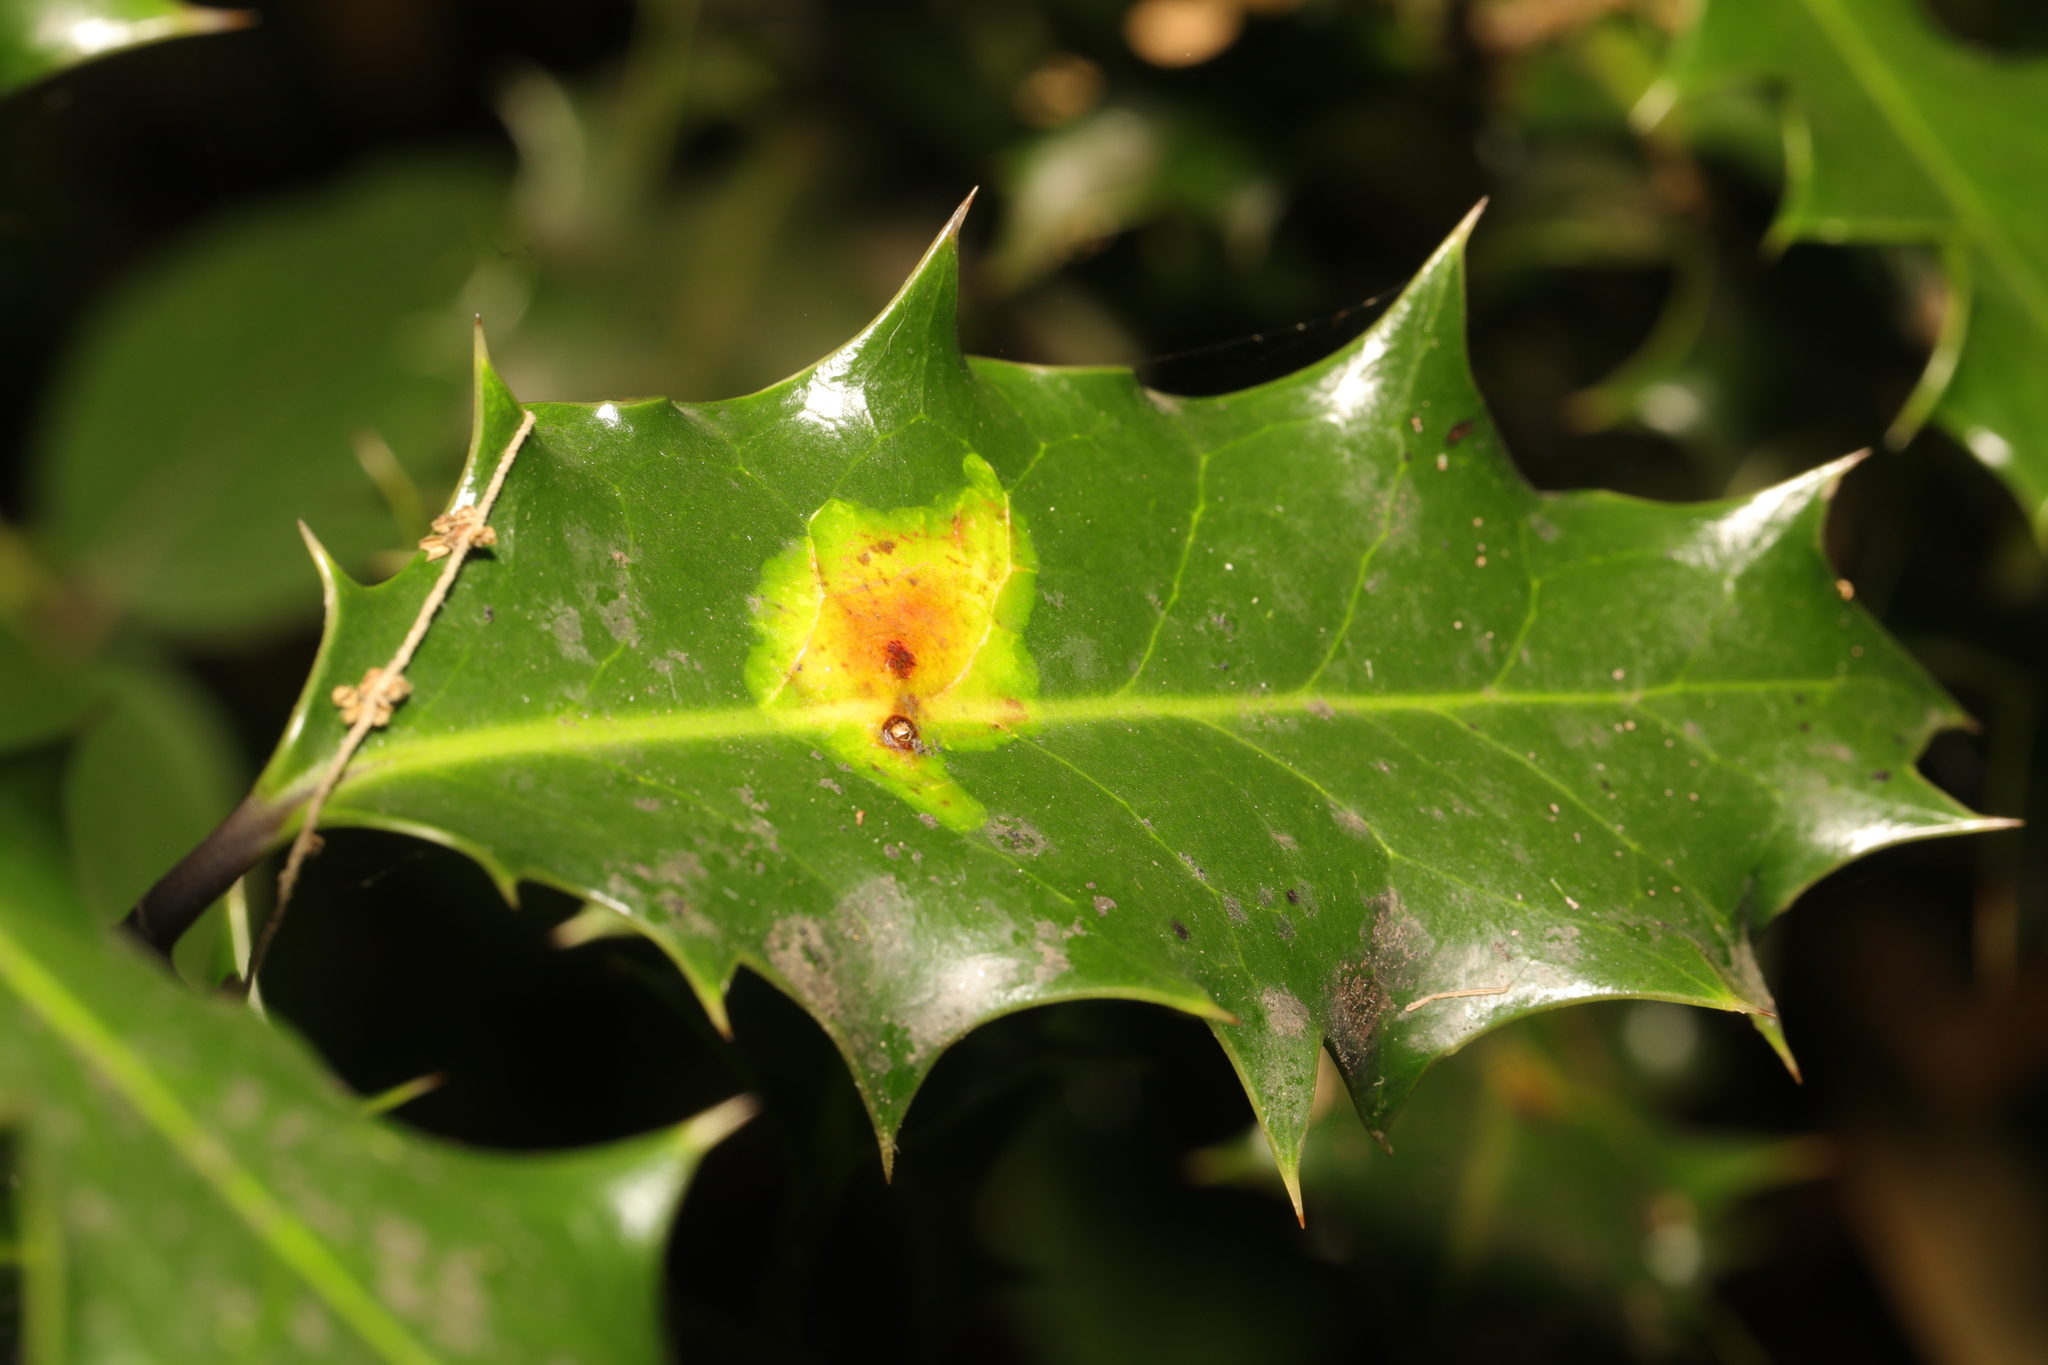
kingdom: Animalia
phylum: Arthropoda
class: Insecta
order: Diptera
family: Agromyzidae
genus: Phytomyza
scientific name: Phytomyza ilicis
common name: Holly leafminer
